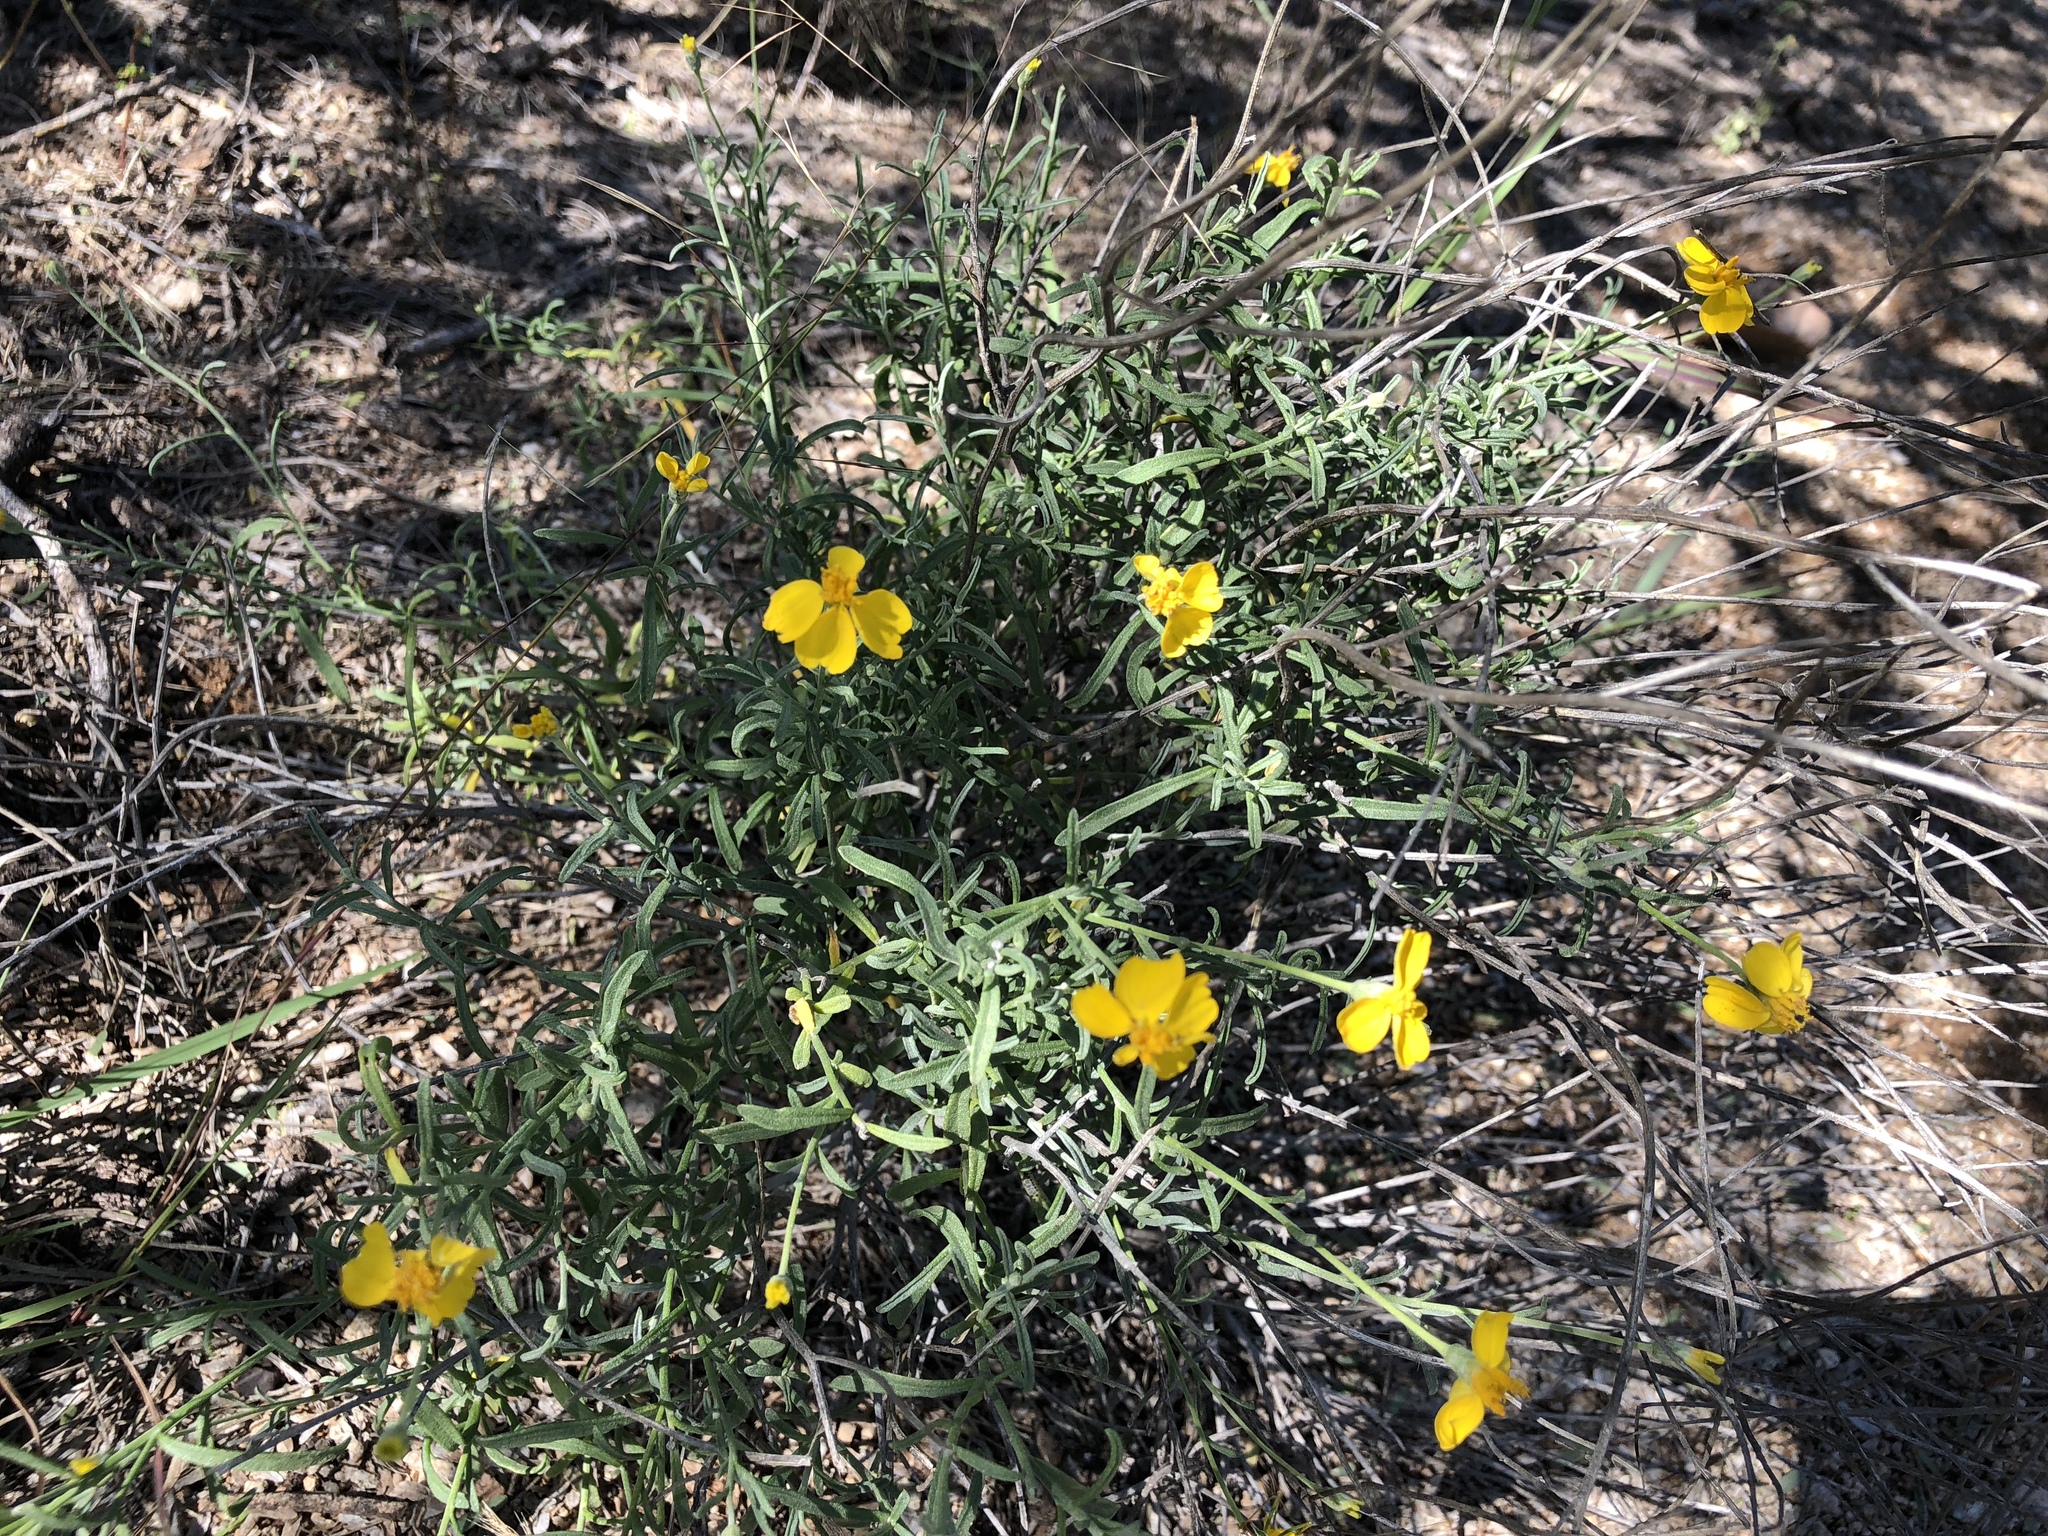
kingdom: Plantae
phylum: Tracheophyta
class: Magnoliopsida
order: Asterales
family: Asteraceae
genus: Psilostrophe
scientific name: Psilostrophe cooperi
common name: White-stem paper-flower
